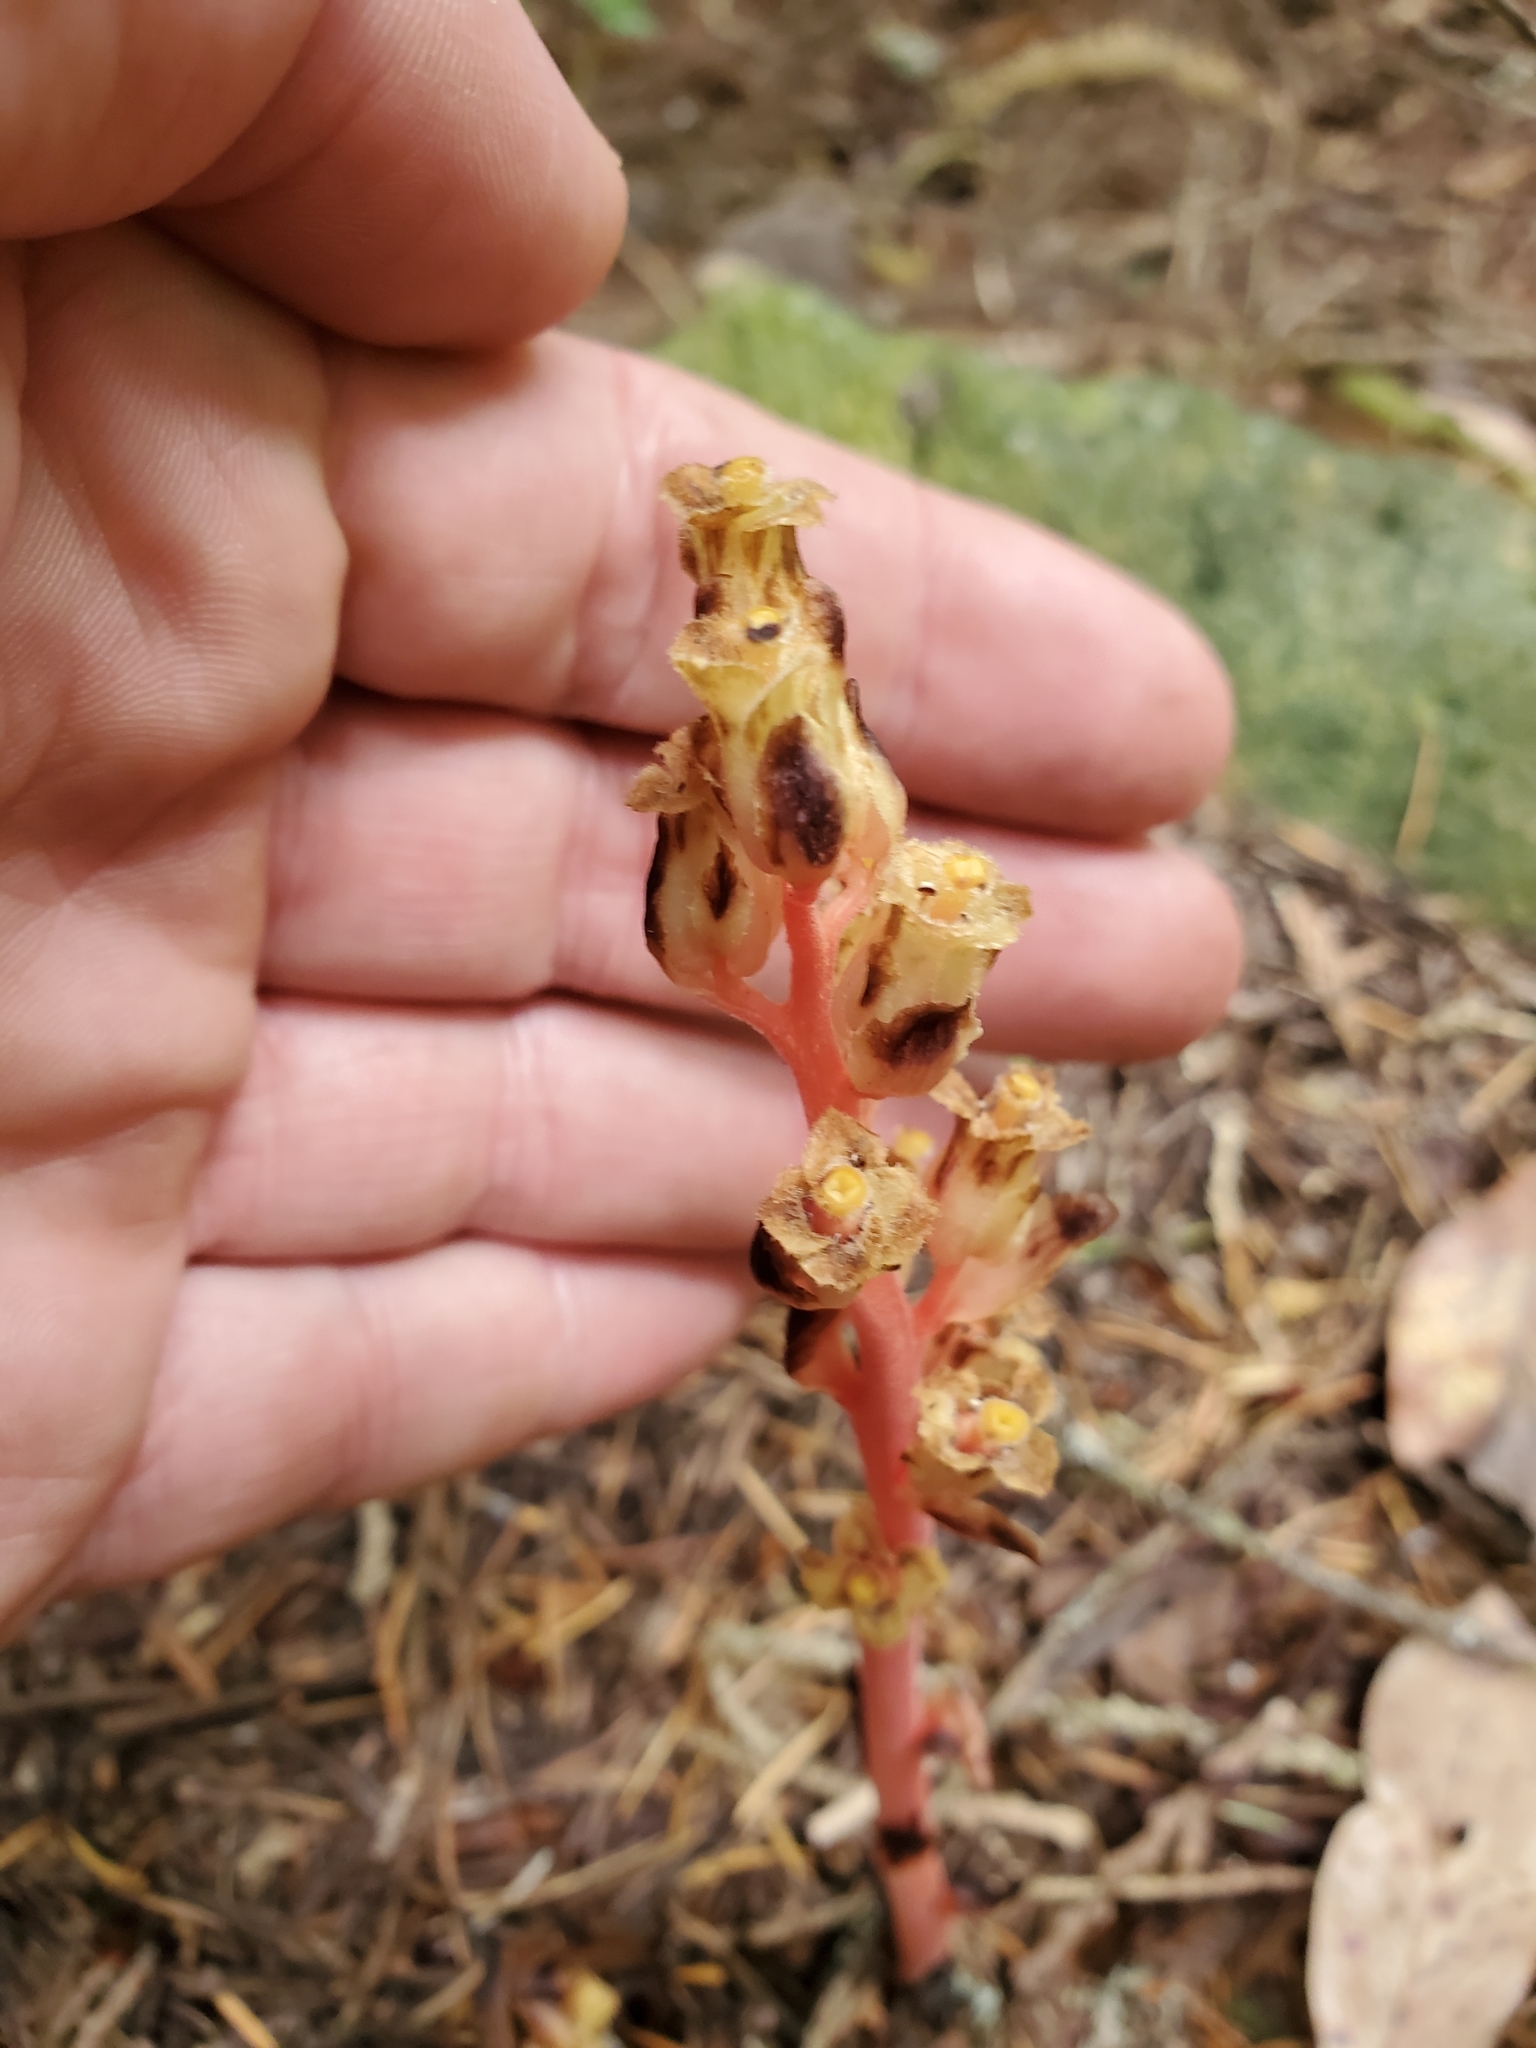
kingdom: Plantae
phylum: Tracheophyta
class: Magnoliopsida
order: Ericales
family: Ericaceae
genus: Hypopitys
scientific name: Hypopitys monotropa
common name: Yellow bird's-nest
